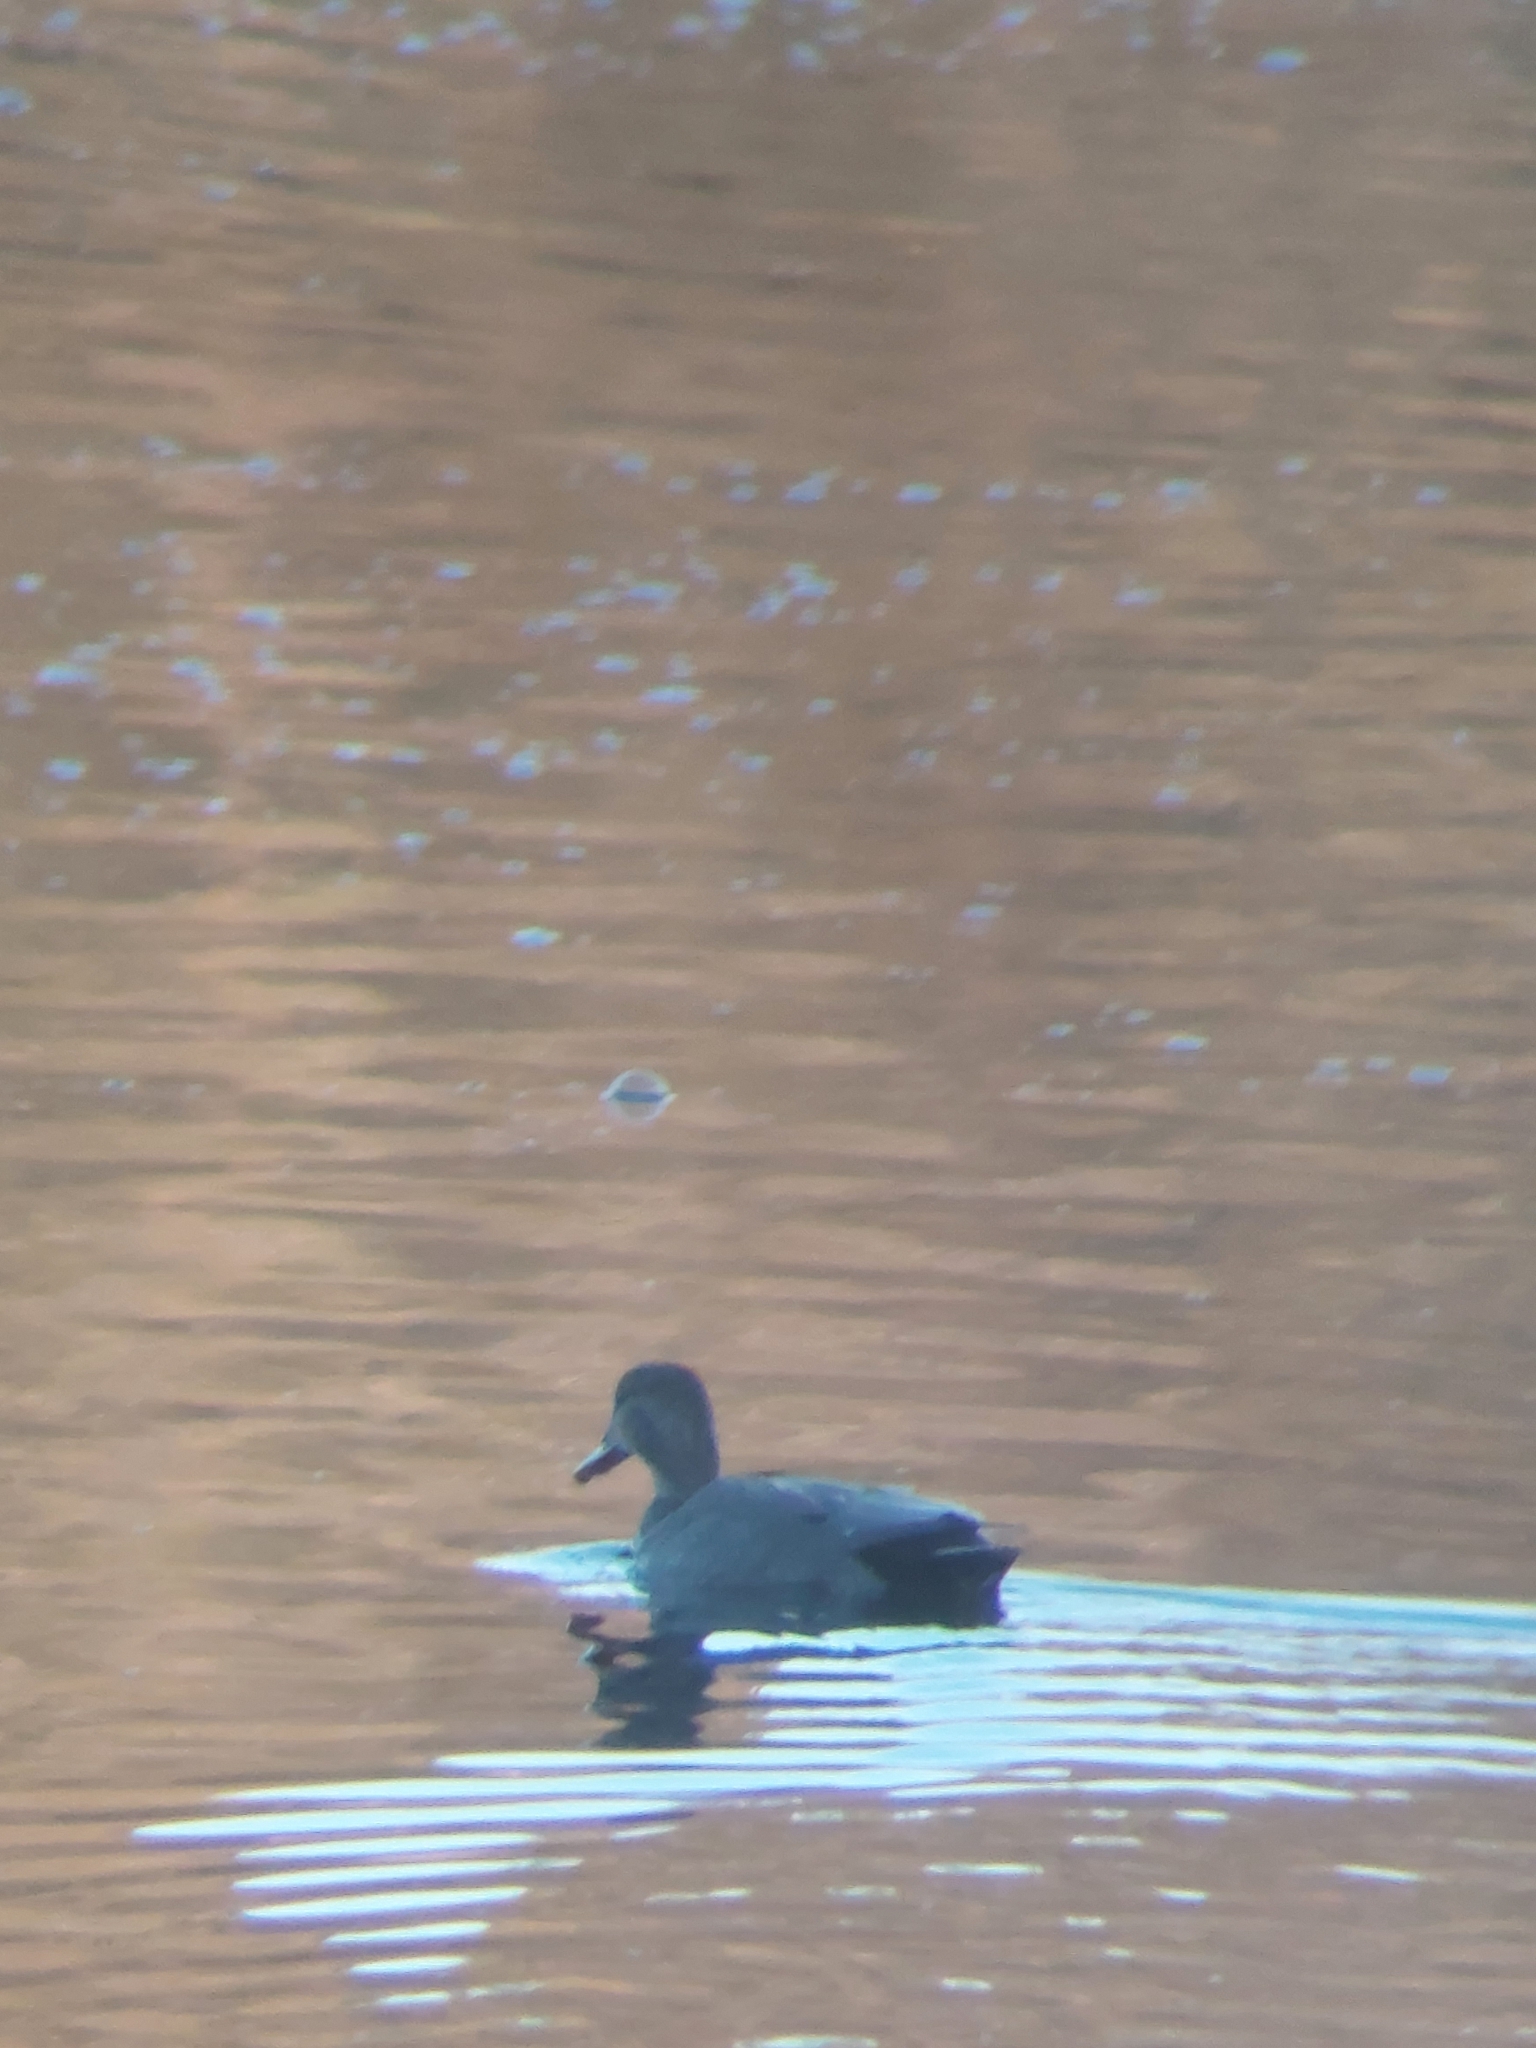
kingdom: Animalia
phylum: Chordata
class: Aves
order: Anseriformes
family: Anatidae
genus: Mareca
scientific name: Mareca strepera
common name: Gadwall
